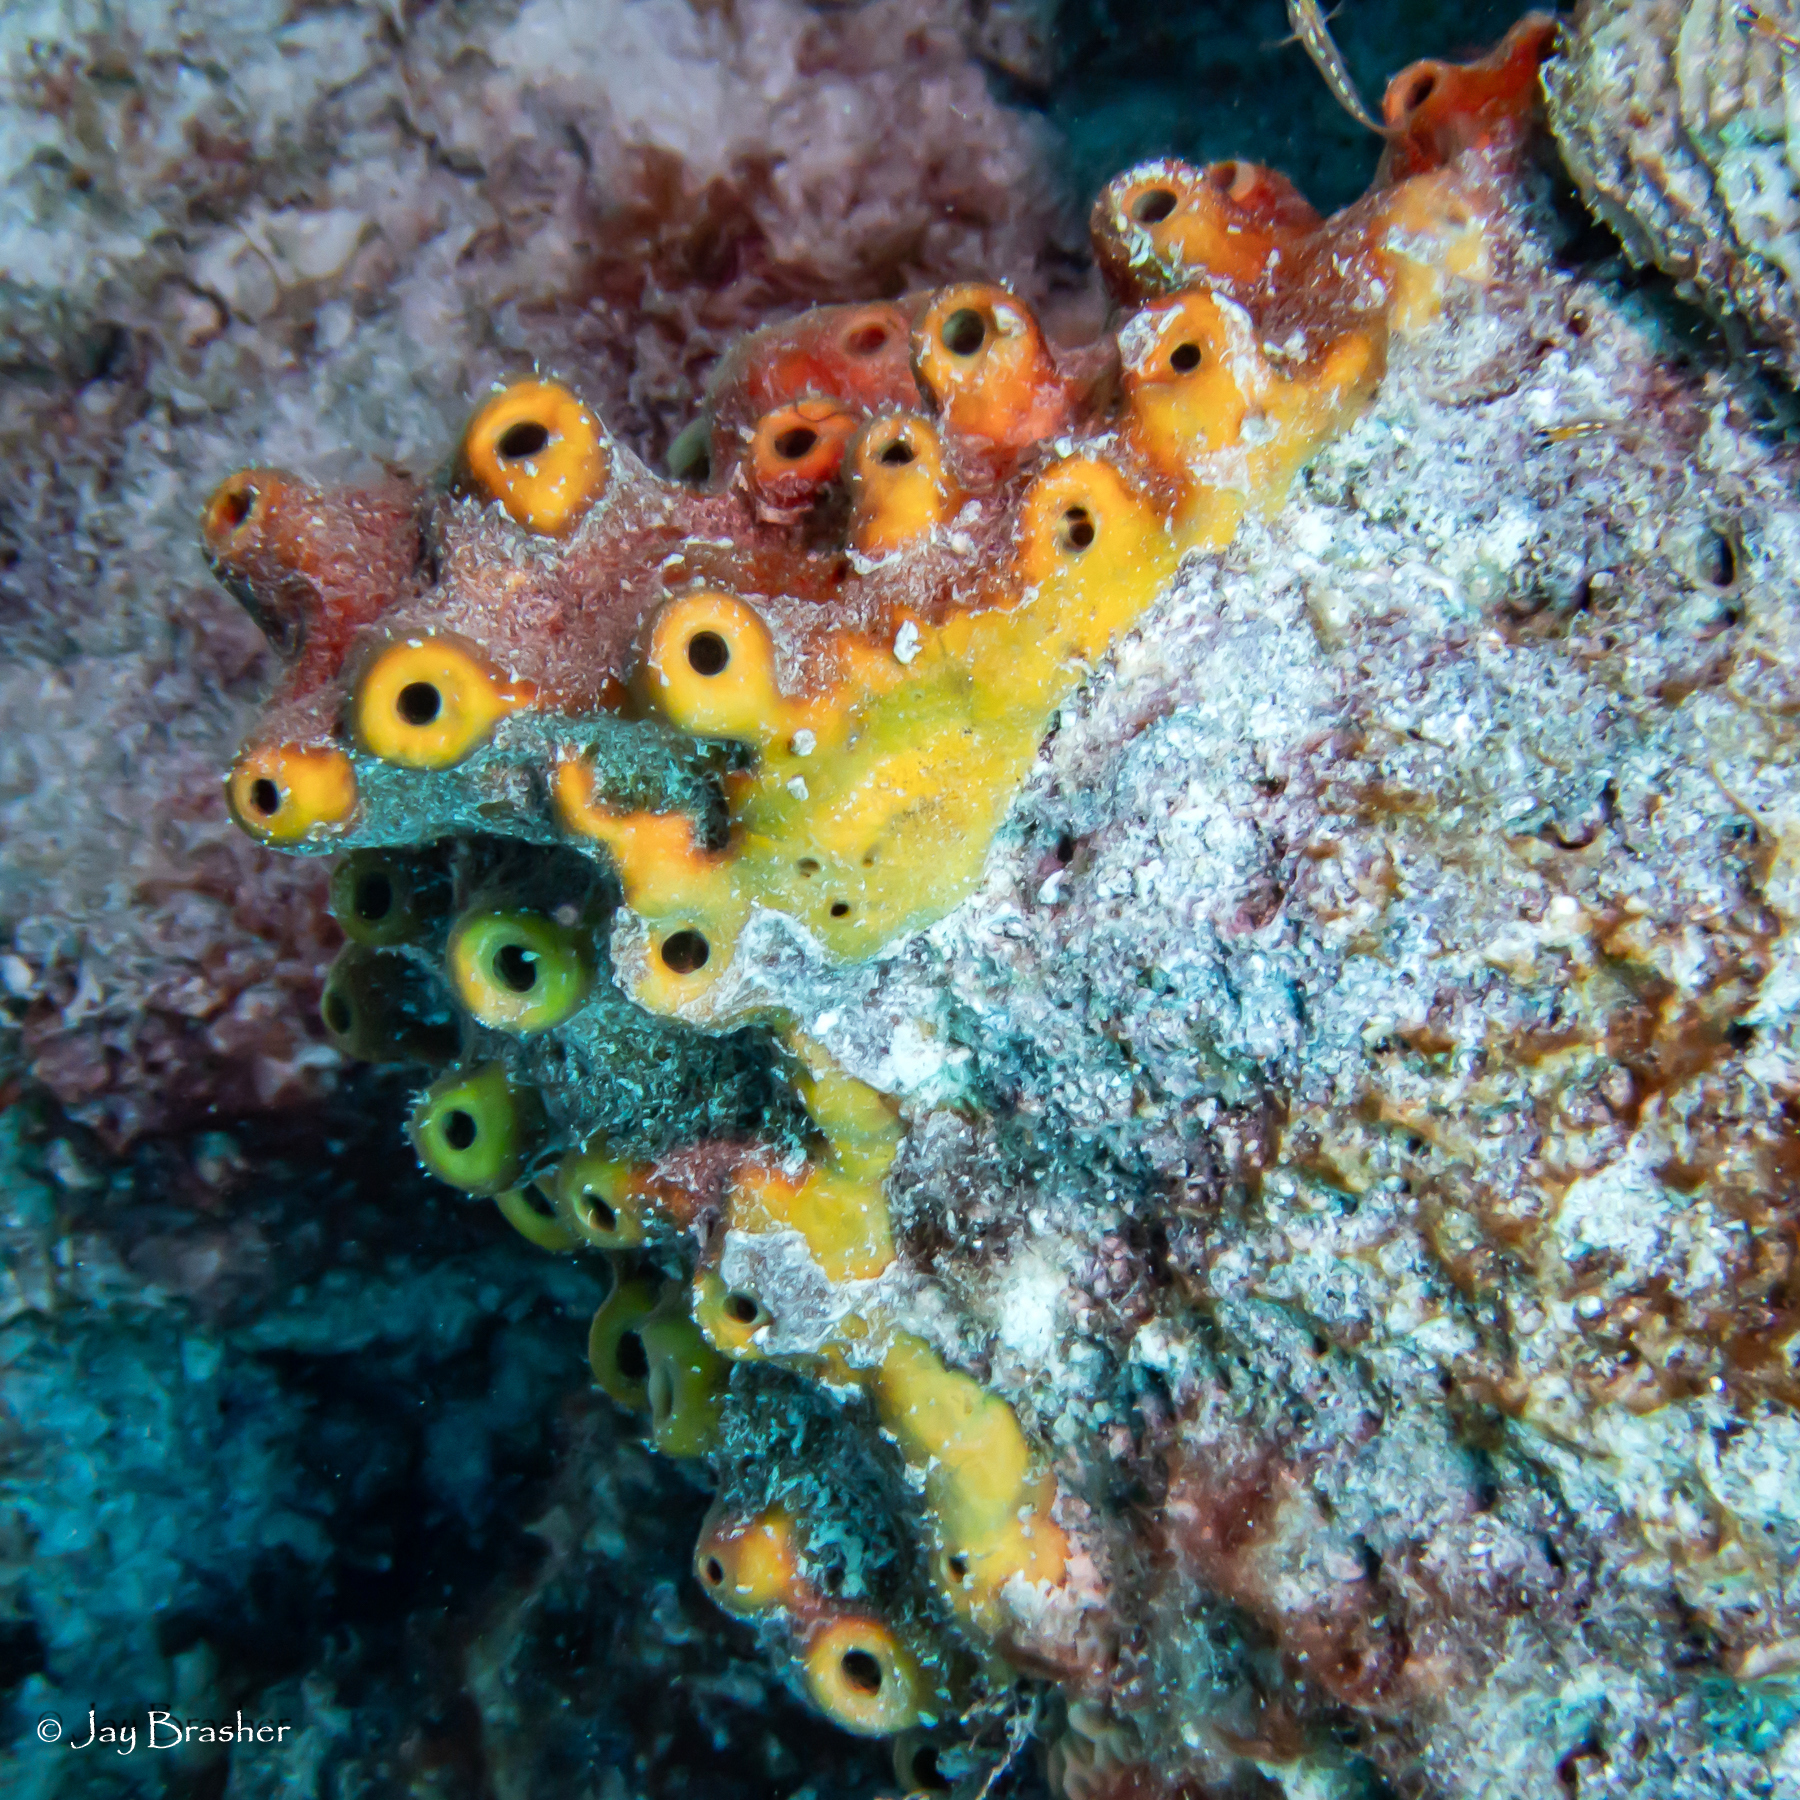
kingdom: Animalia
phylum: Porifera
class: Demospongiae
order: Axinellida
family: Raspailiidae
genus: Ectyoplasia
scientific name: Ectyoplasia ferox
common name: Brown encrusting octopus sponge
